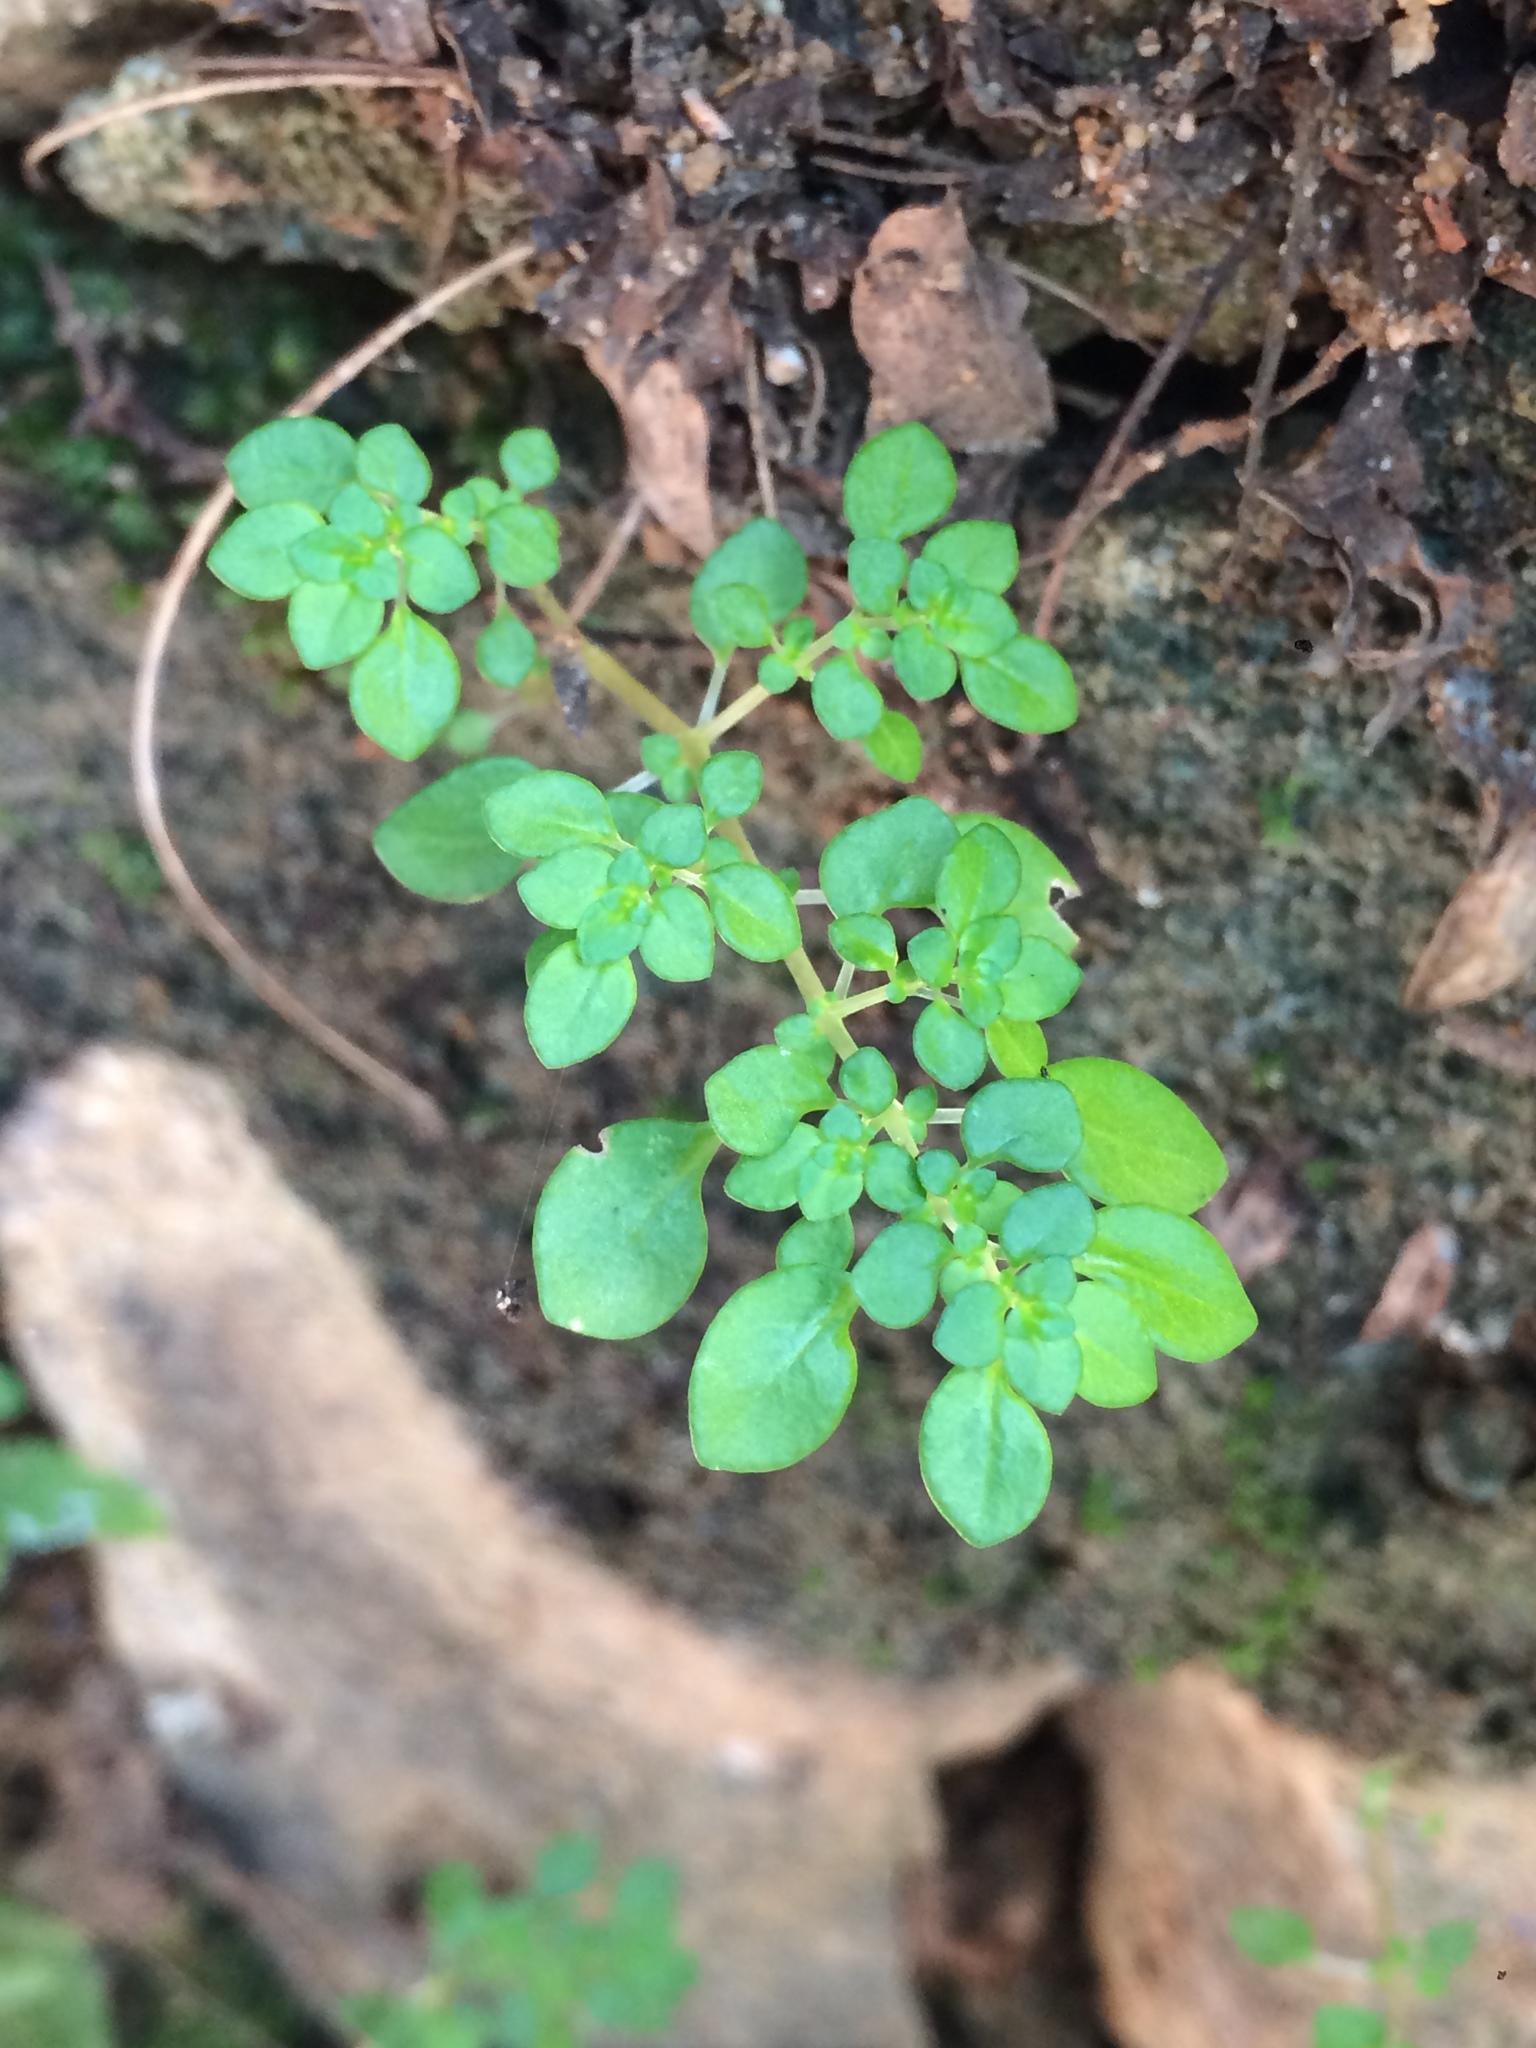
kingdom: Plantae
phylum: Tracheophyta
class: Magnoliopsida
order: Rosales
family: Urticaceae
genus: Pilea
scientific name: Pilea microphylla
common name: Artillery-plant
